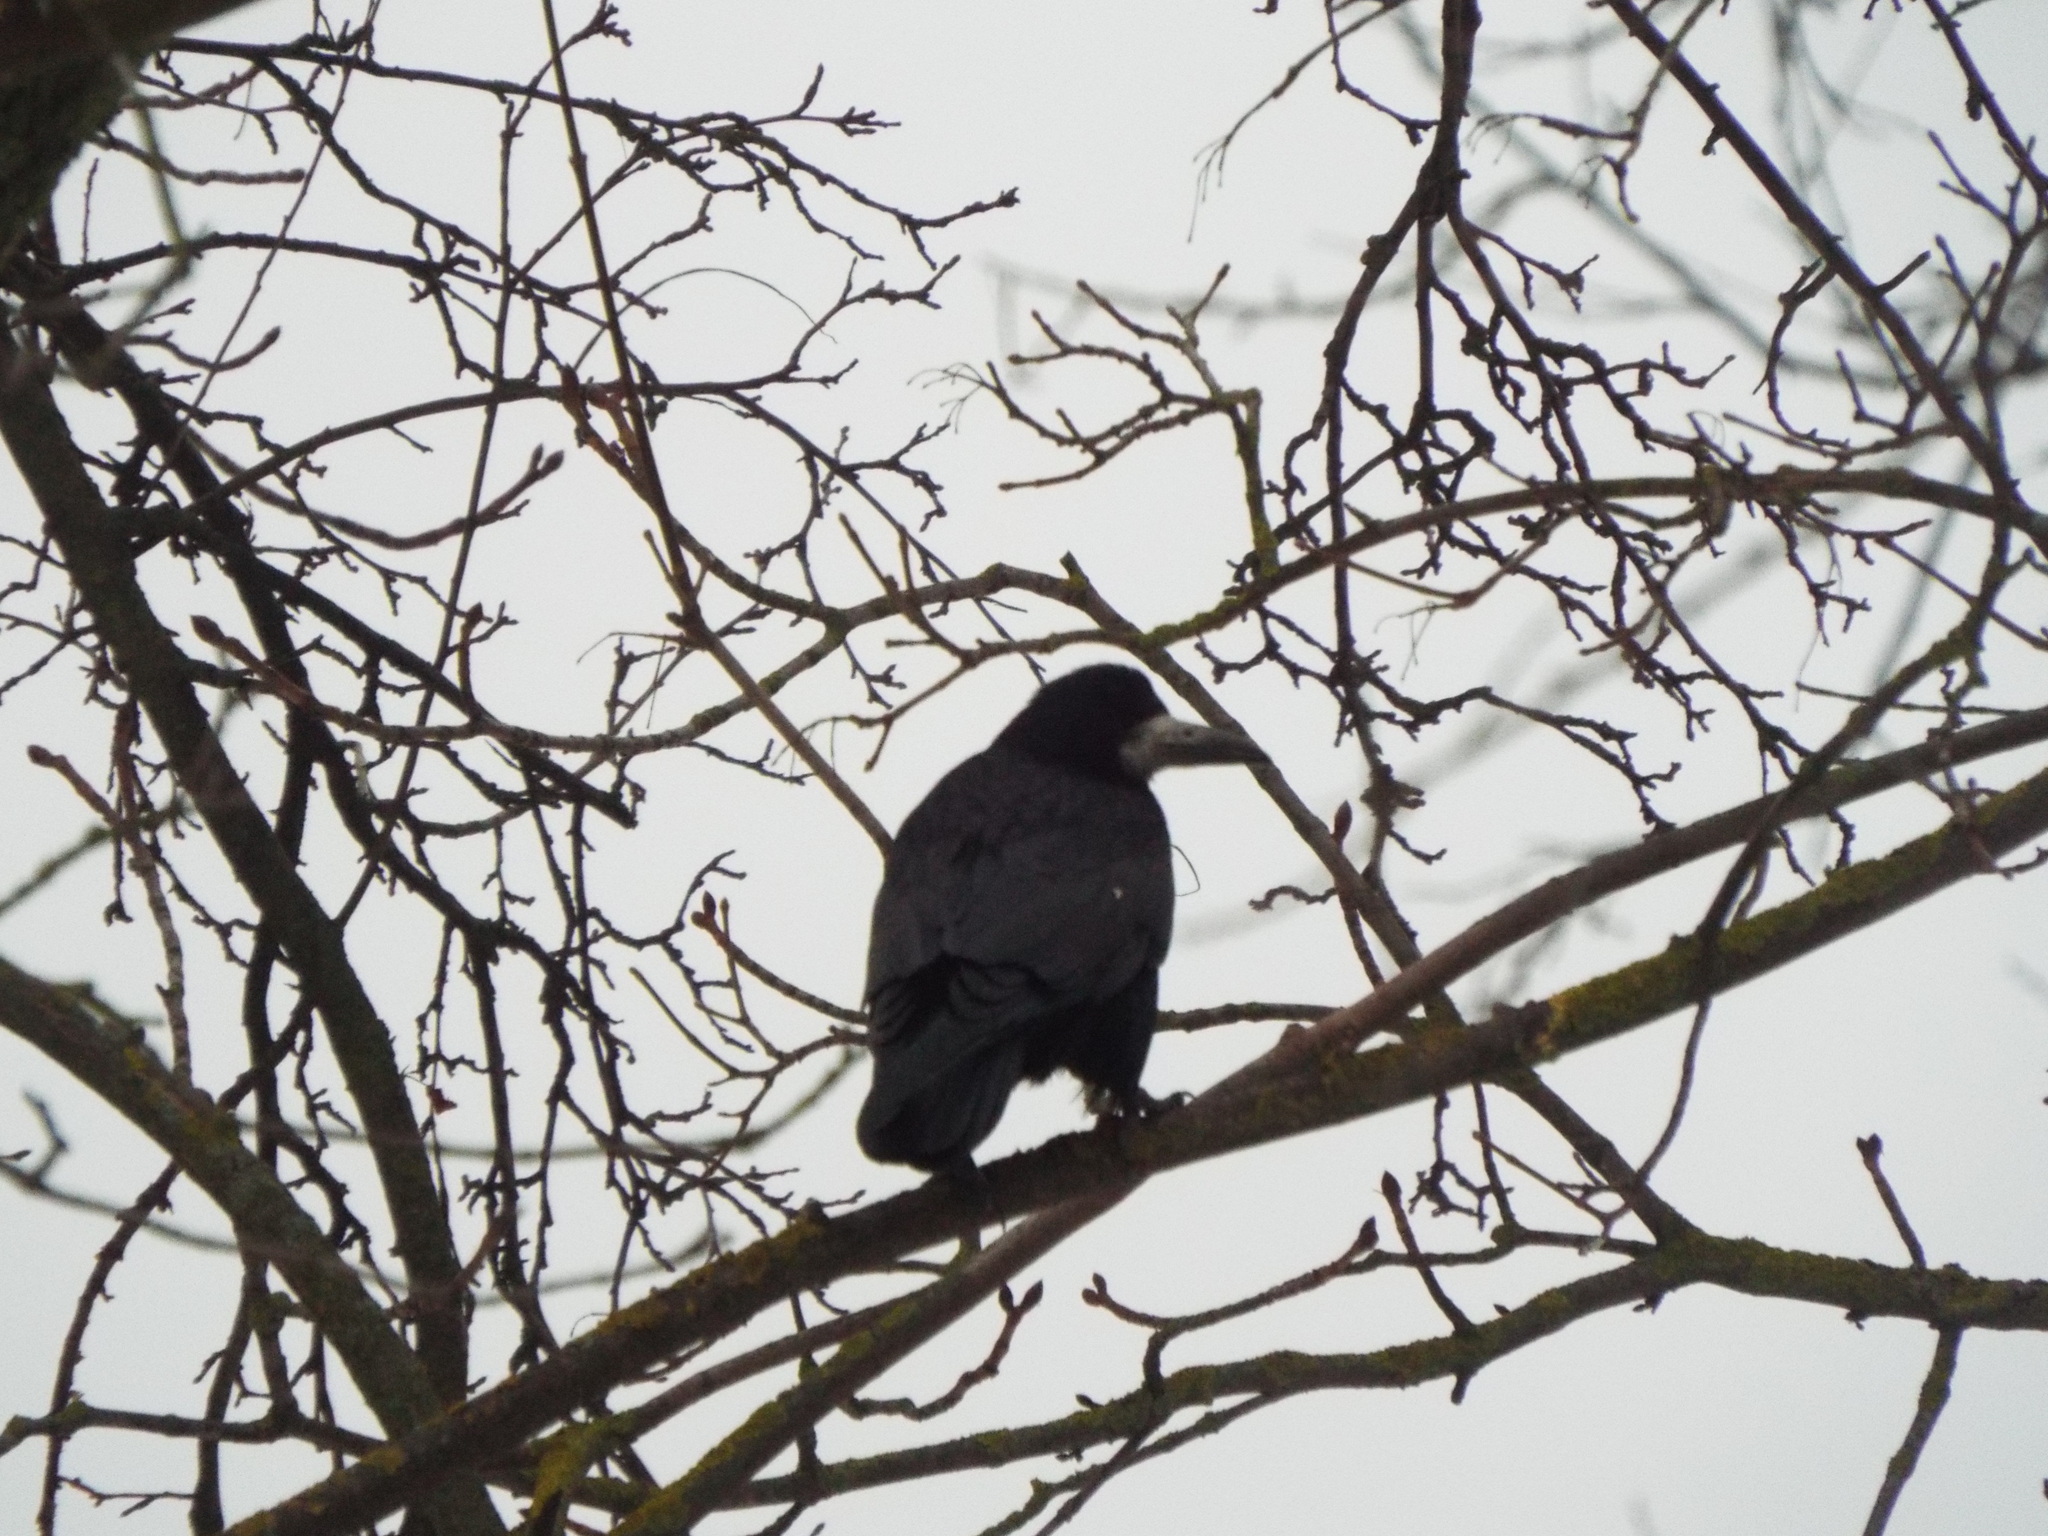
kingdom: Animalia
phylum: Chordata
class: Aves
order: Passeriformes
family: Corvidae
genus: Corvus
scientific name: Corvus frugilegus
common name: Rook
